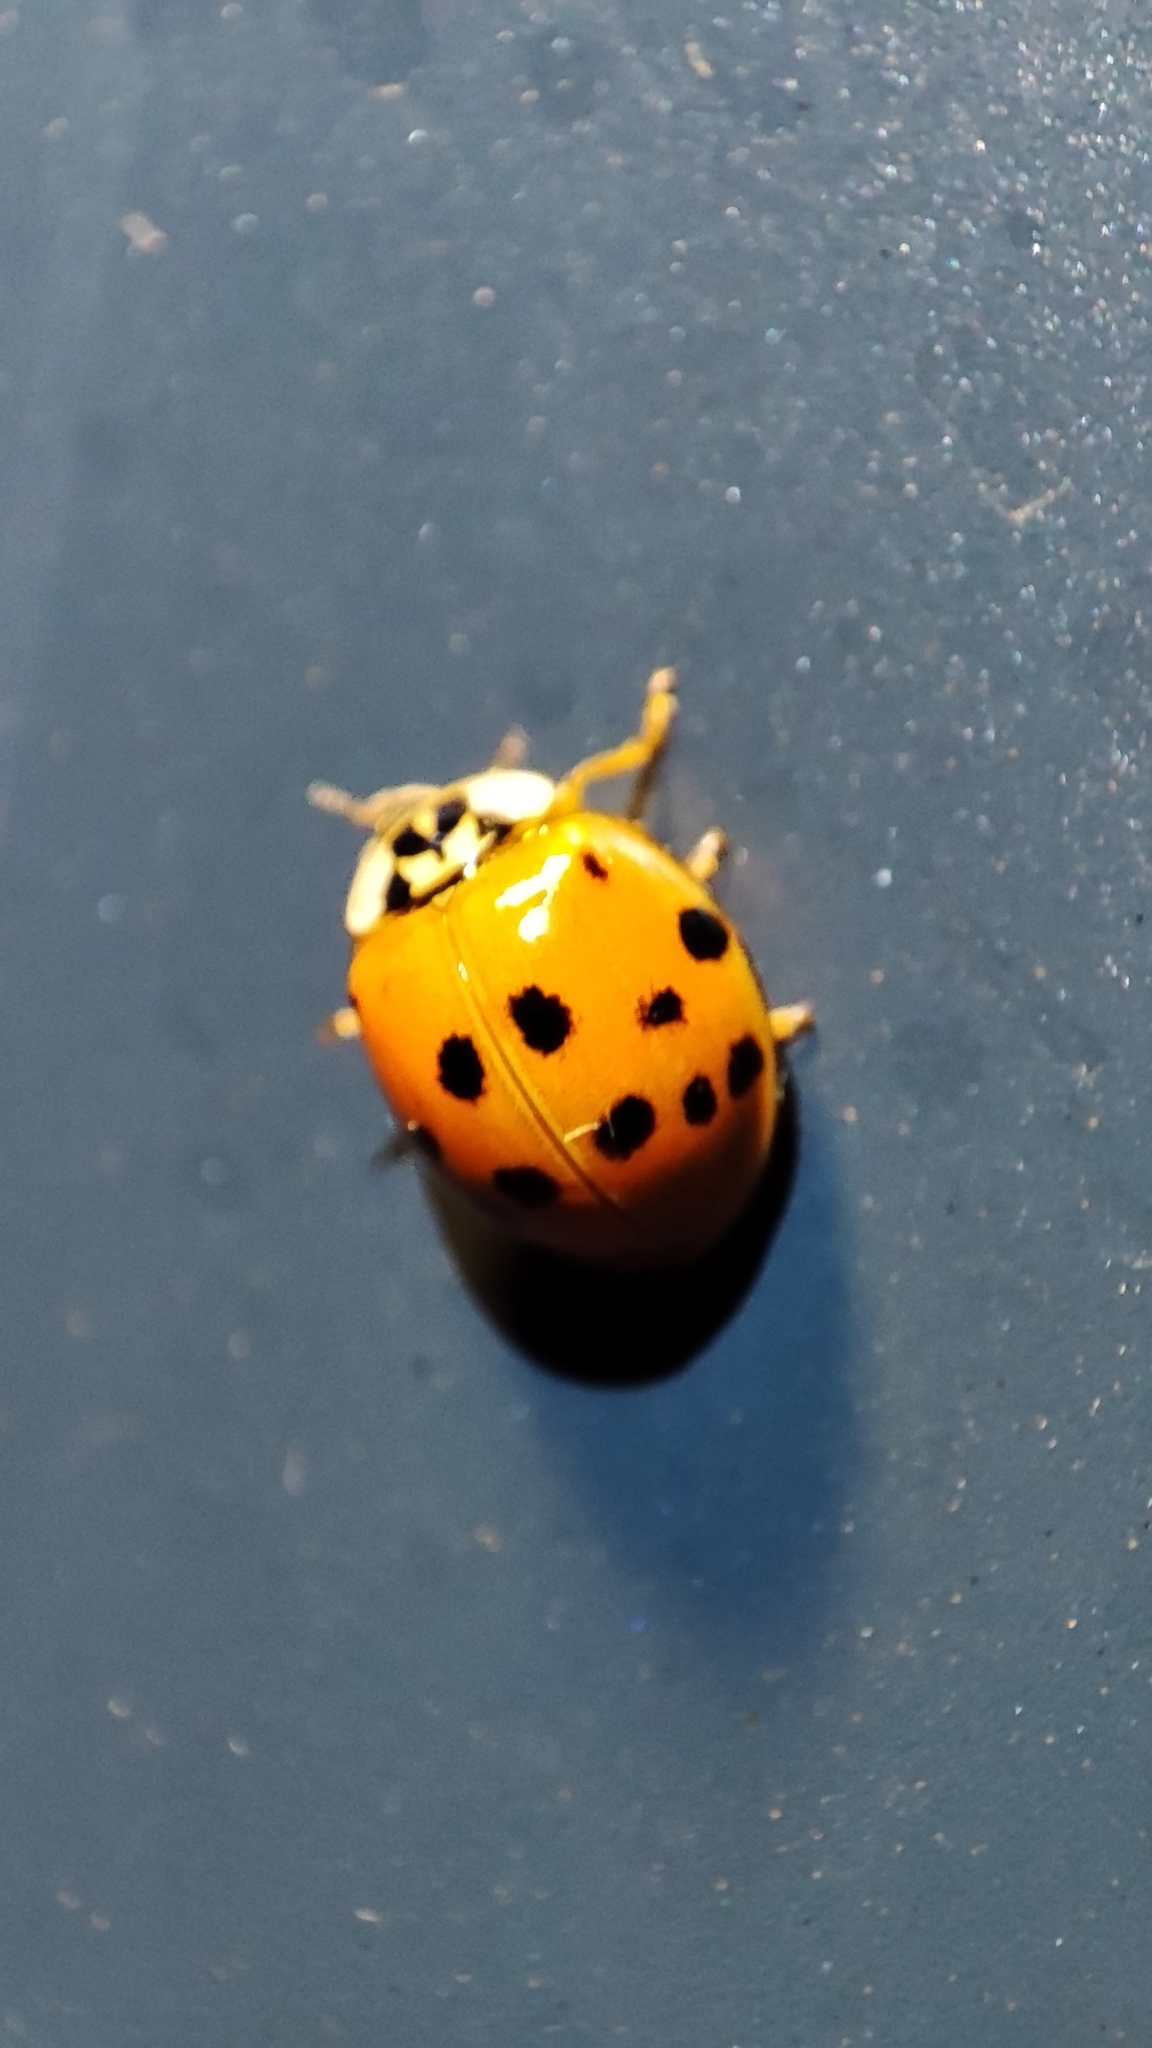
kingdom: Animalia
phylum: Arthropoda
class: Insecta
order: Coleoptera
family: Coccinellidae
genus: Harmonia
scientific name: Harmonia axyridis
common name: Harlequin ladybird
